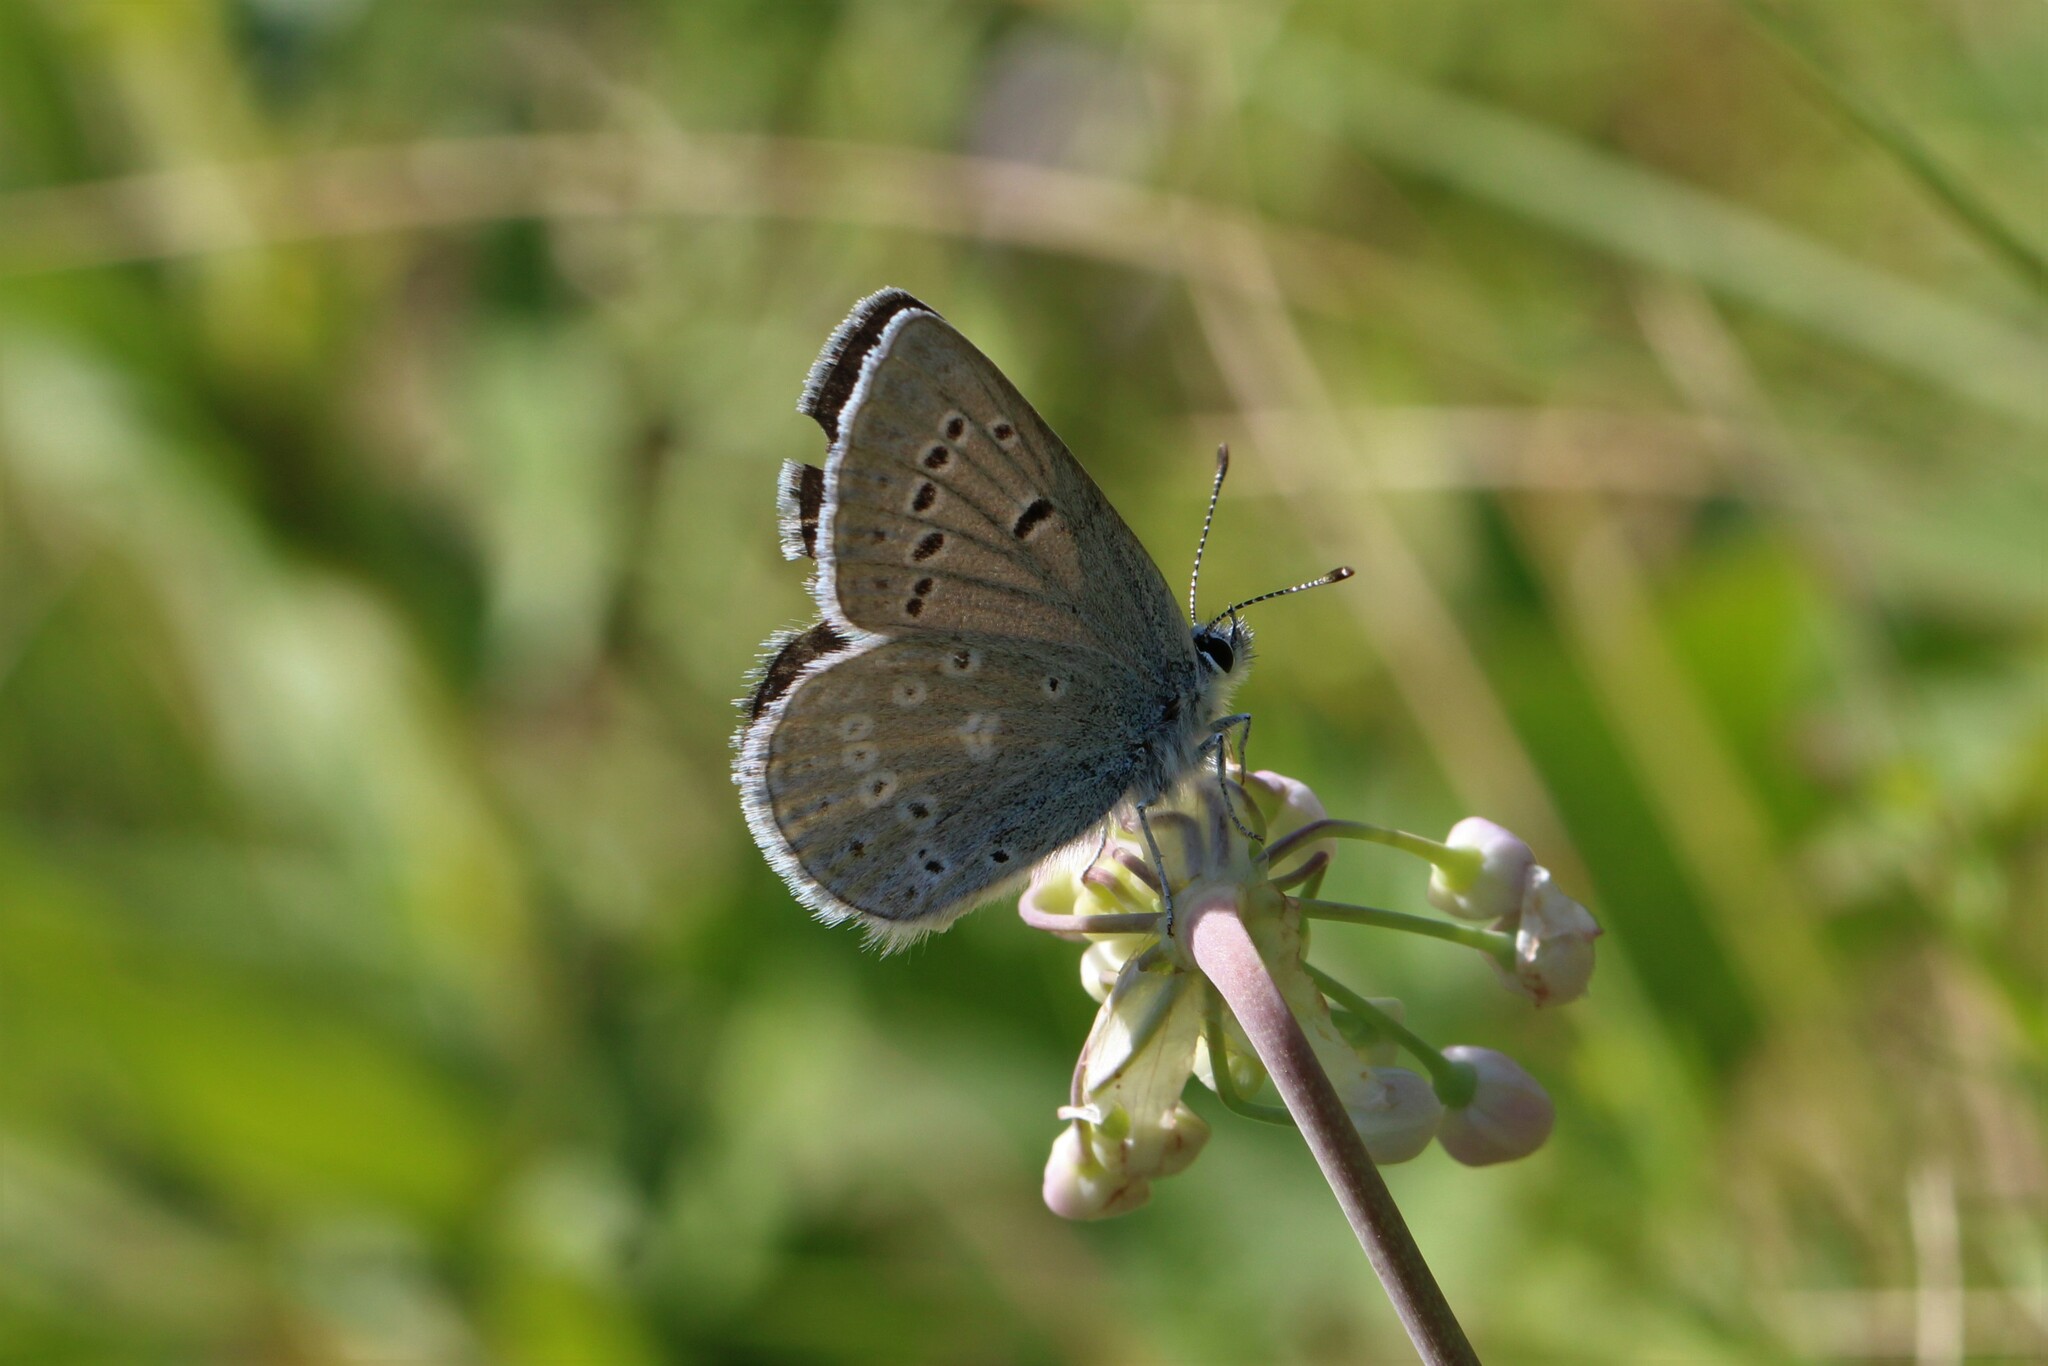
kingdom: Animalia
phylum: Arthropoda
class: Insecta
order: Lepidoptera
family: Lycaenidae
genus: Icaricia
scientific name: Icaricia icarioides
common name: Boisduval's blue
